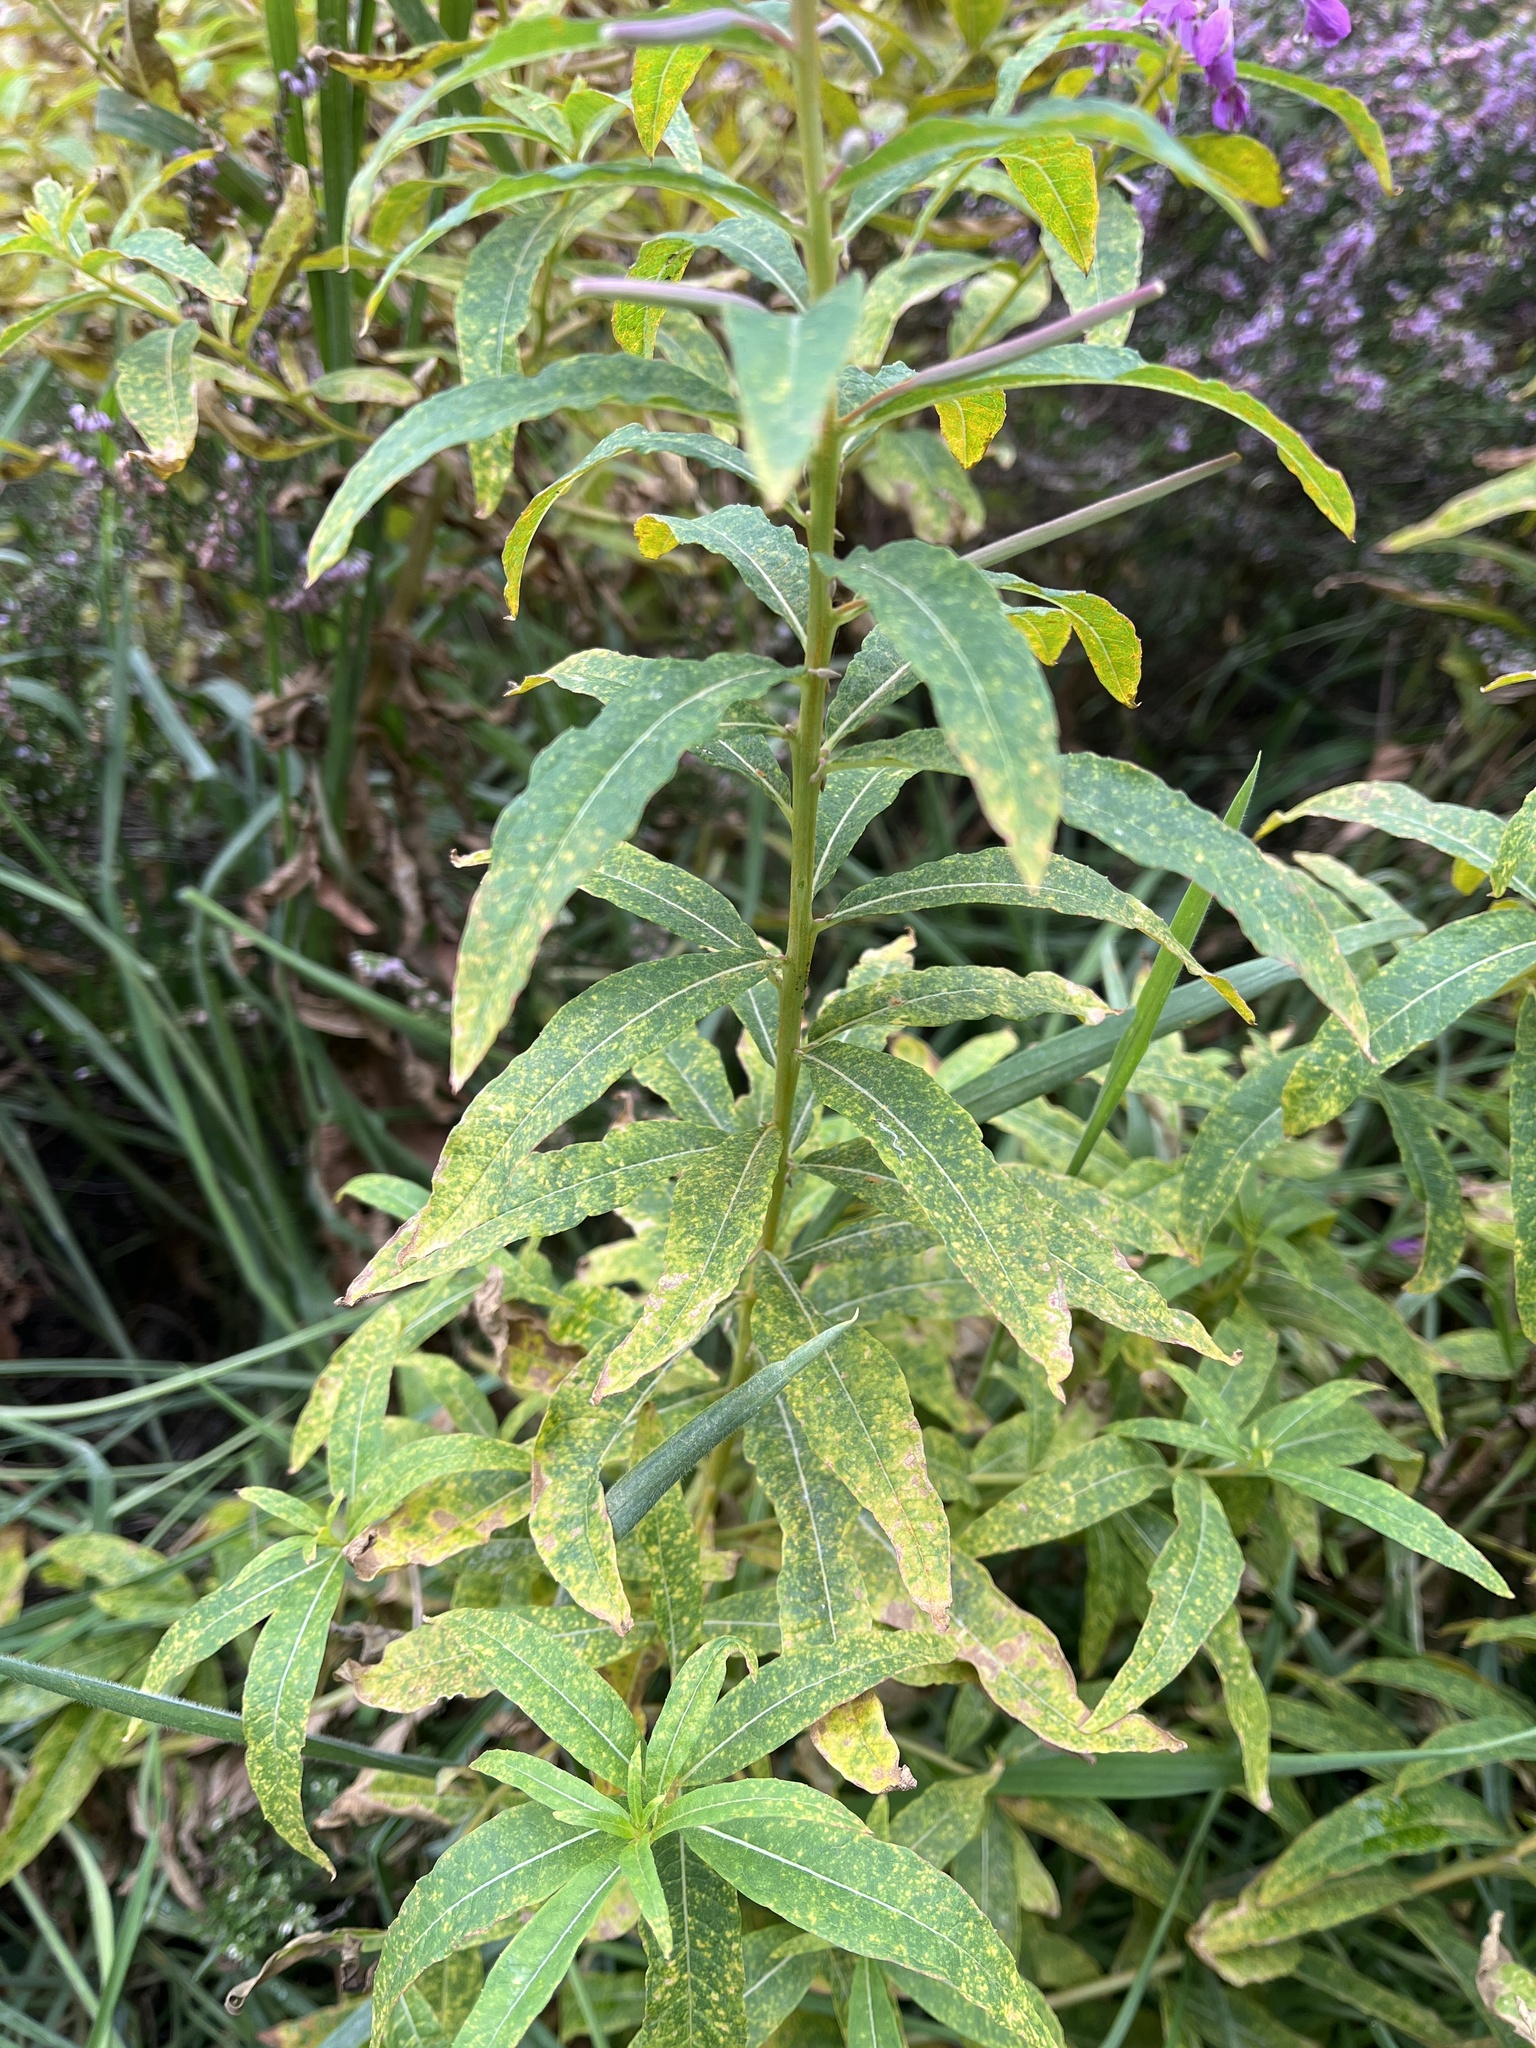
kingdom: Fungi
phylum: Basidiomycota
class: Pucciniomycetes
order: Pucciniales
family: Pucciniastraceae
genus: Pucciniastrum
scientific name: Pucciniastrum epilobii
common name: Fuchsia rust
